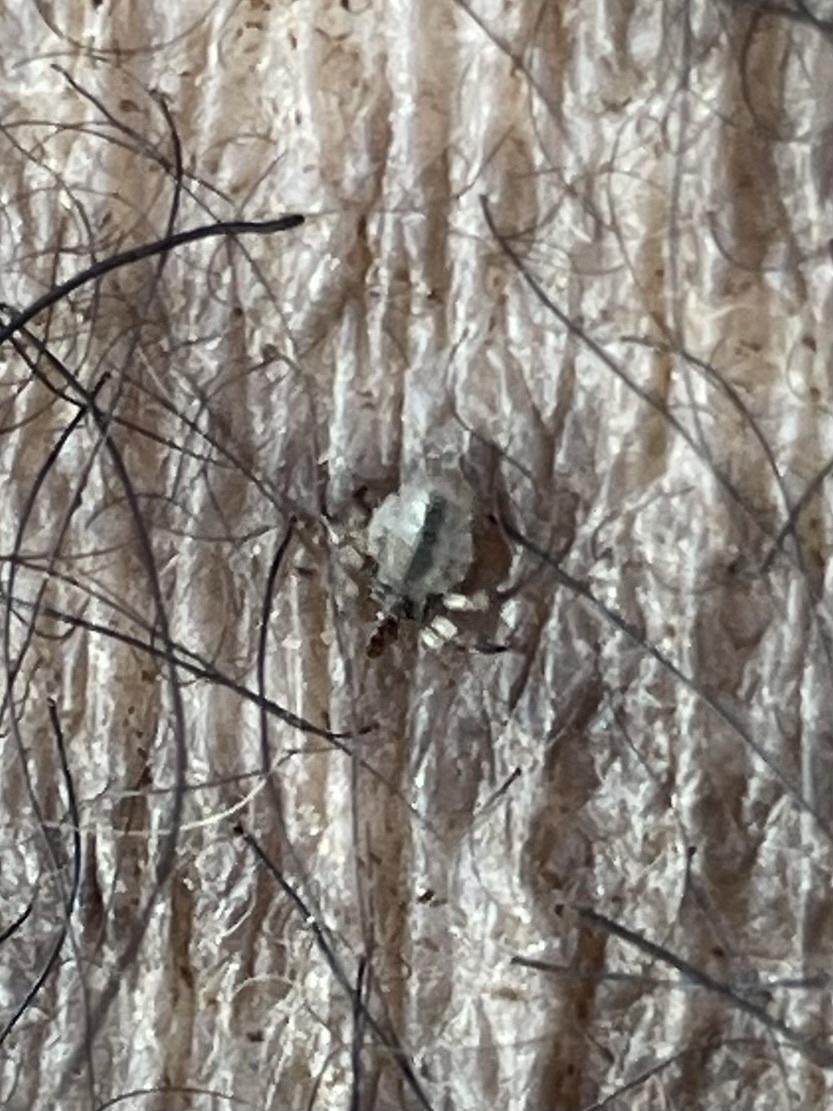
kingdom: Animalia
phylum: Arthropoda
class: Insecta
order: Psocodea
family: Haematopinidae
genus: Haematopinus
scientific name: Haematopinus suis
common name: Hog louse
